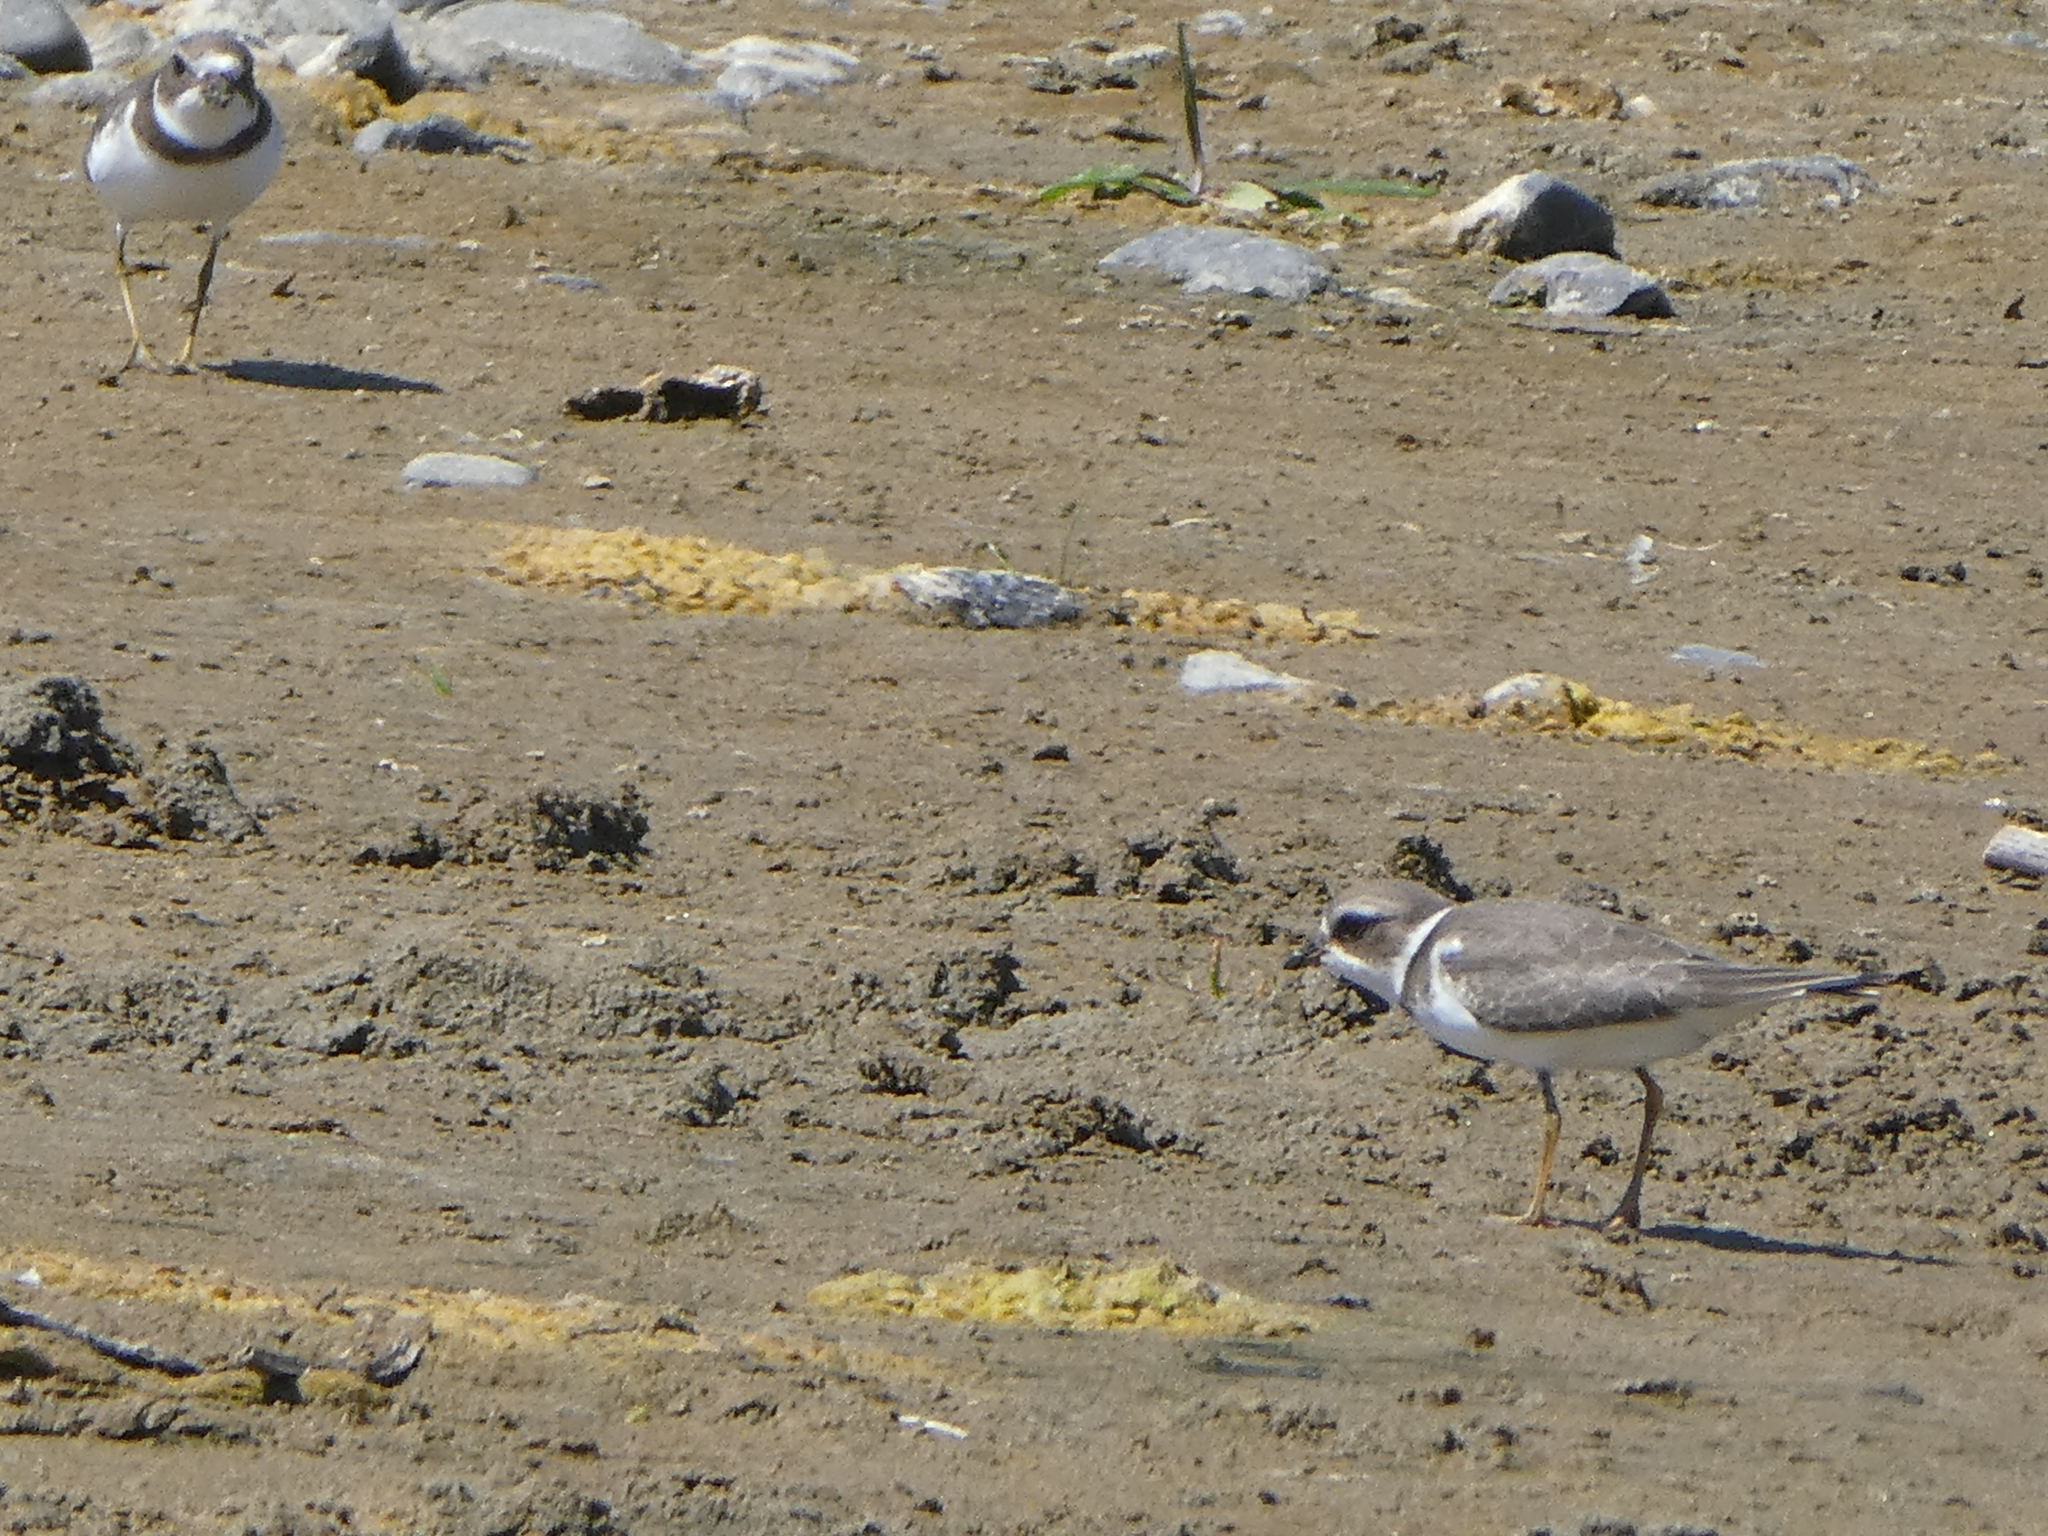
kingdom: Animalia
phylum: Chordata
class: Aves
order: Charadriiformes
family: Charadriidae
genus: Charadrius
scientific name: Charadrius semipalmatus
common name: Semipalmated plover
